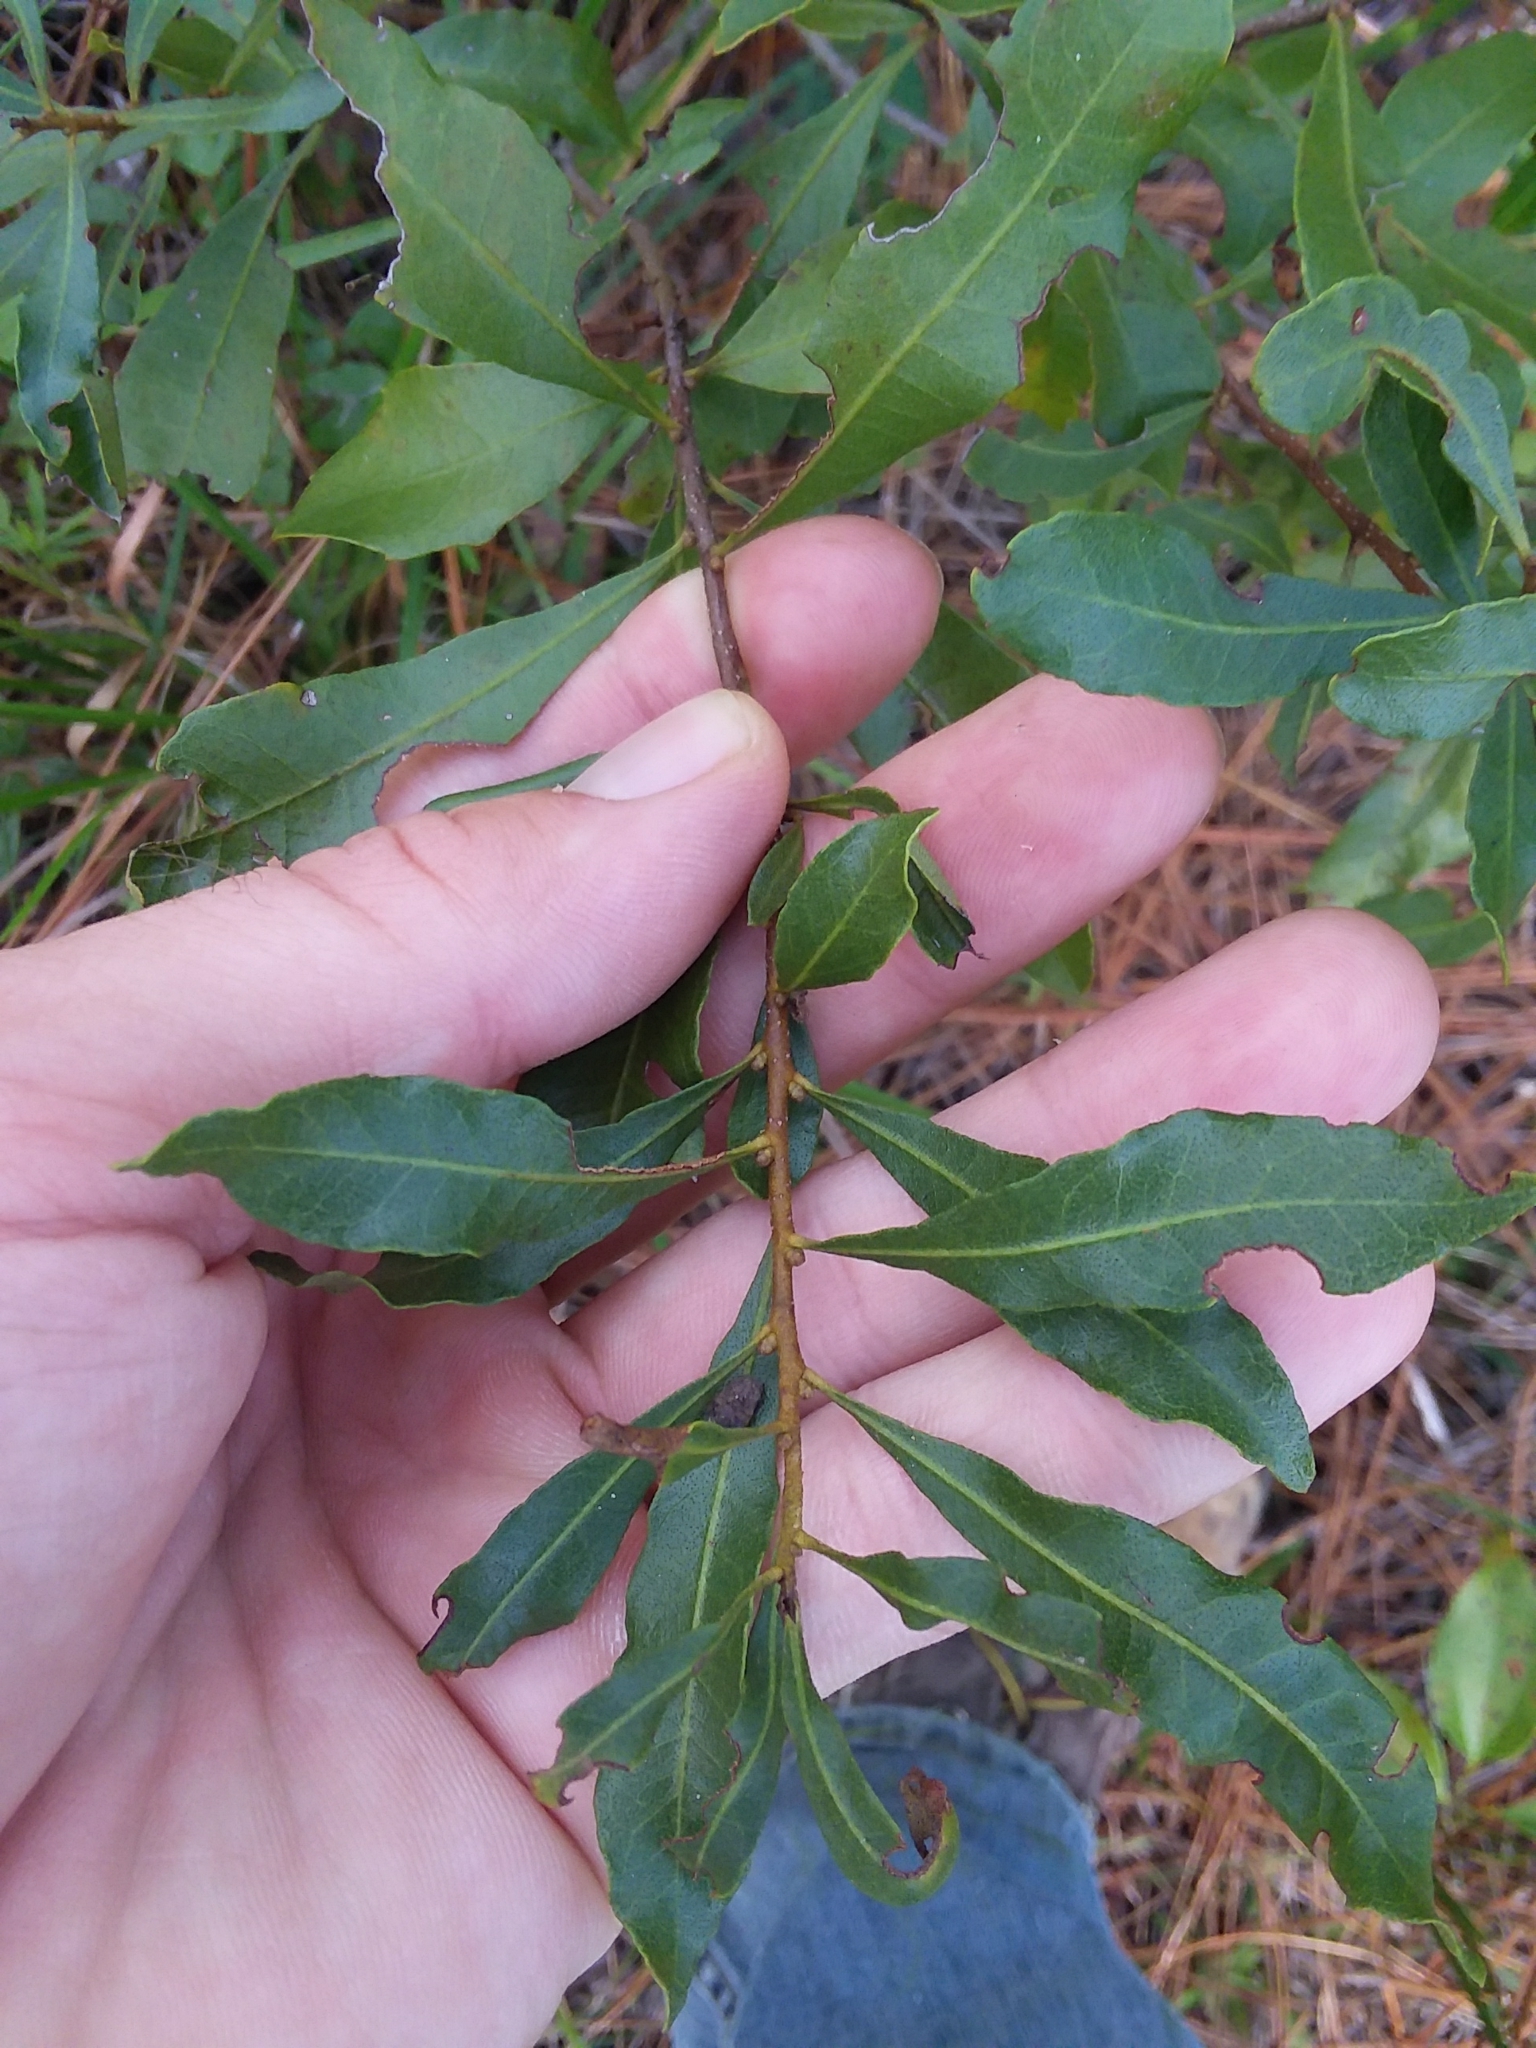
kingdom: Plantae
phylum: Tracheophyta
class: Magnoliopsida
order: Fagales
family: Myricaceae
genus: Morella
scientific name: Morella cerifera
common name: Wax myrtle
